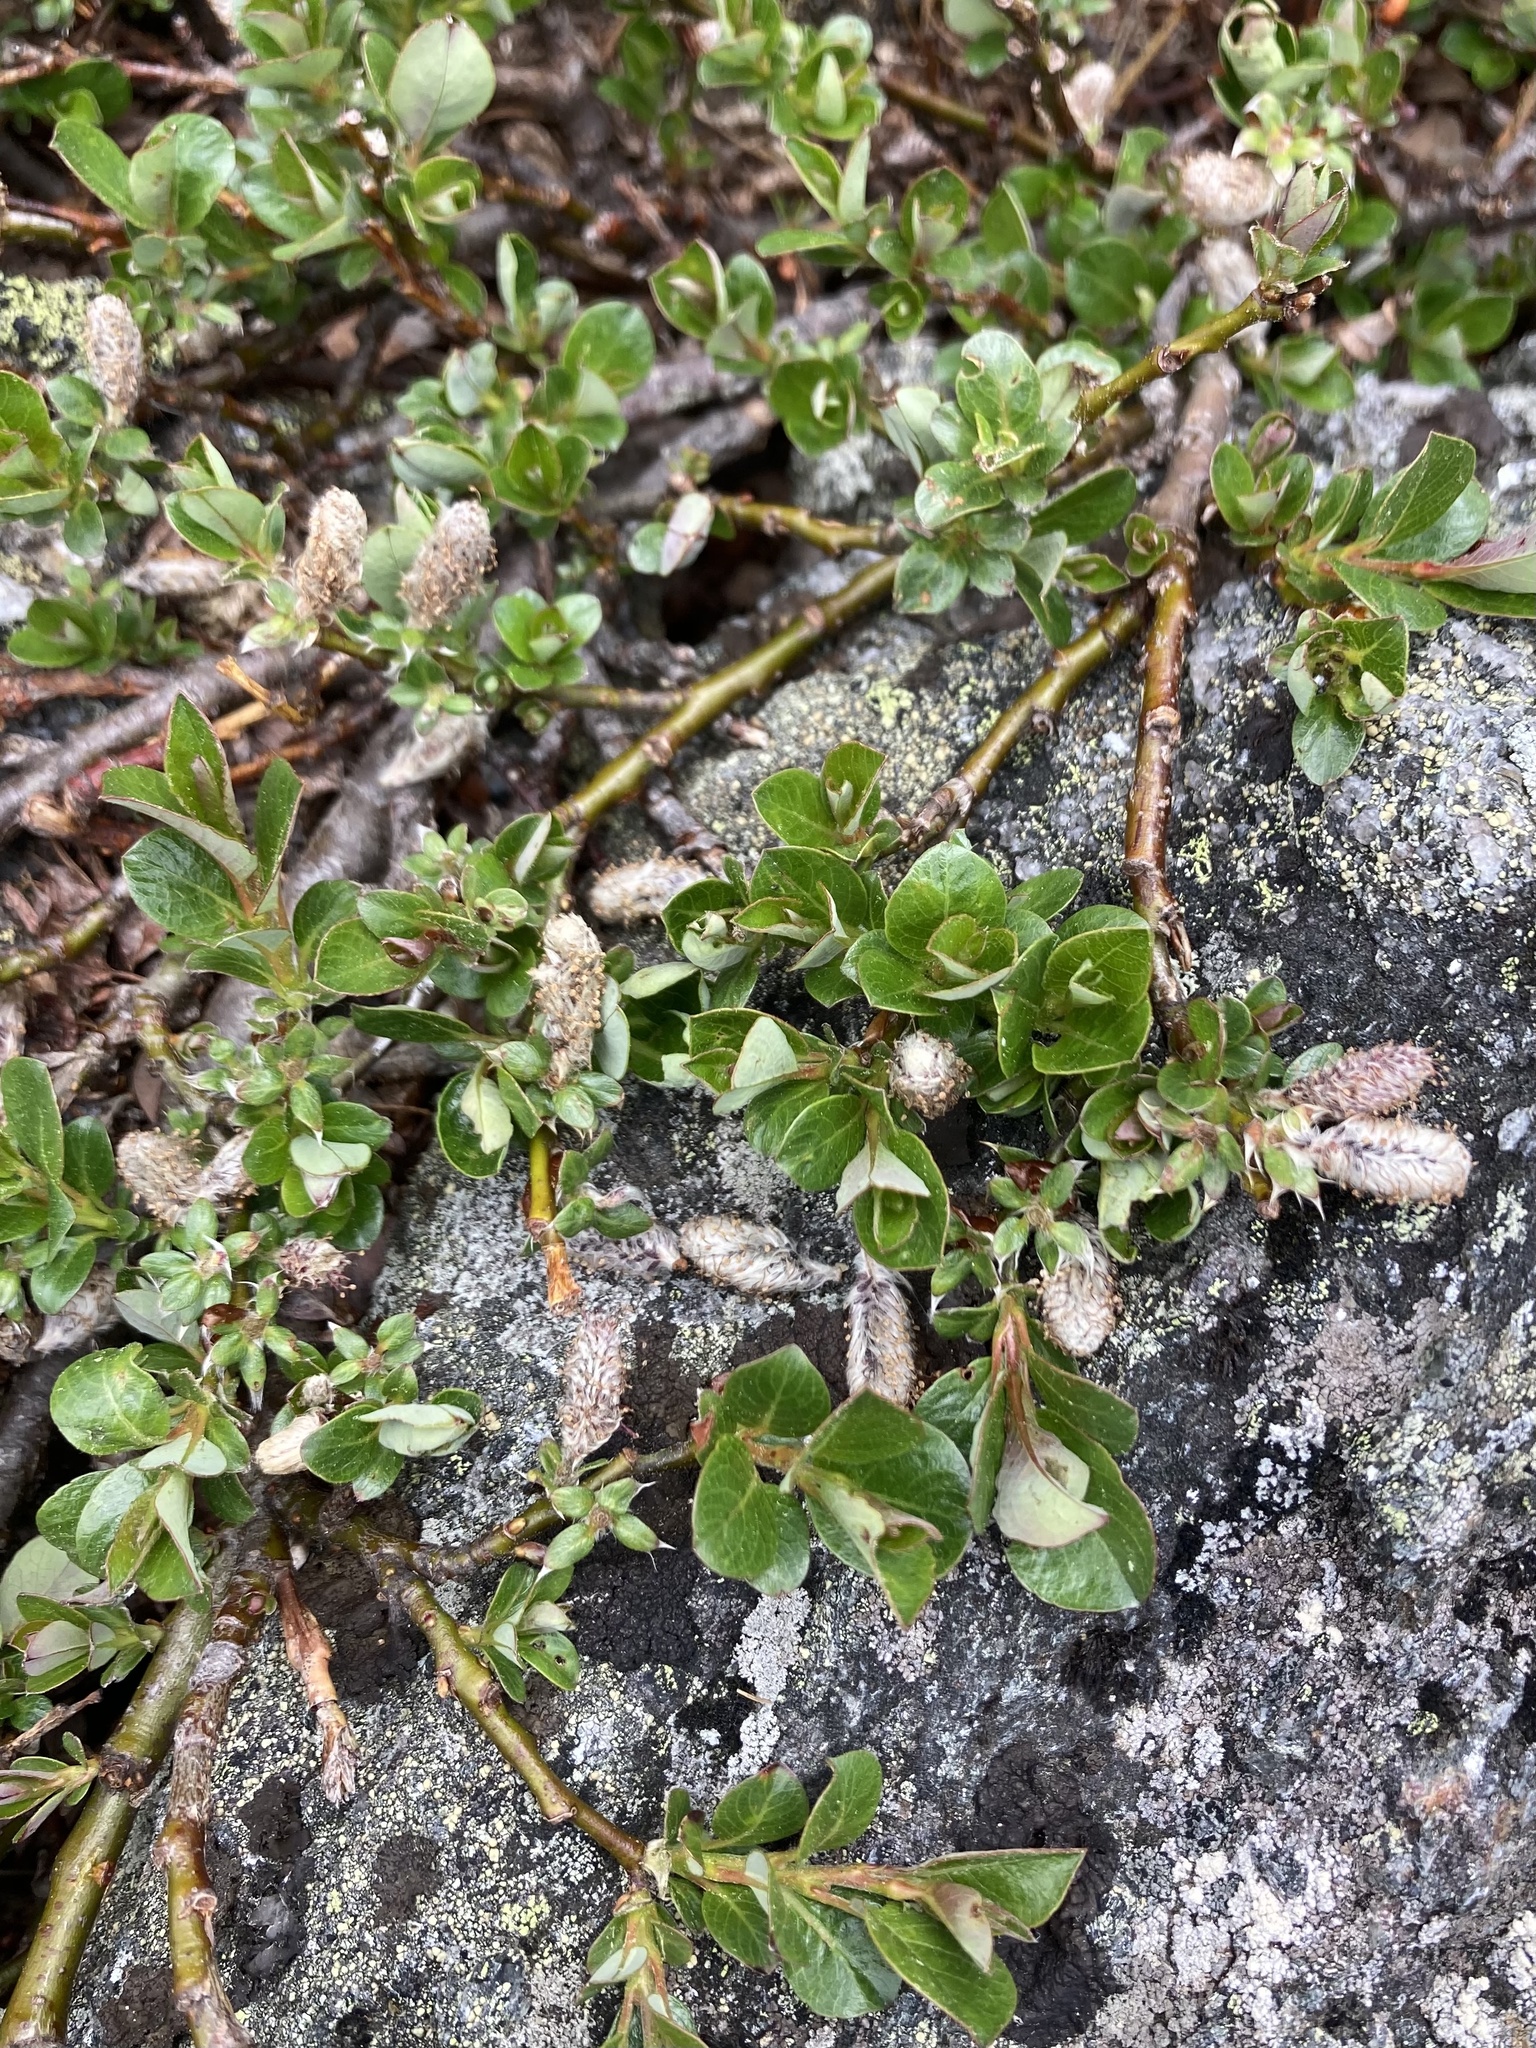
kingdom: Plantae
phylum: Tracheophyta
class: Magnoliopsida
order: Malpighiales
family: Salicaceae
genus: Salix
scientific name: Salix uva-ursi
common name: Bearberry willow
